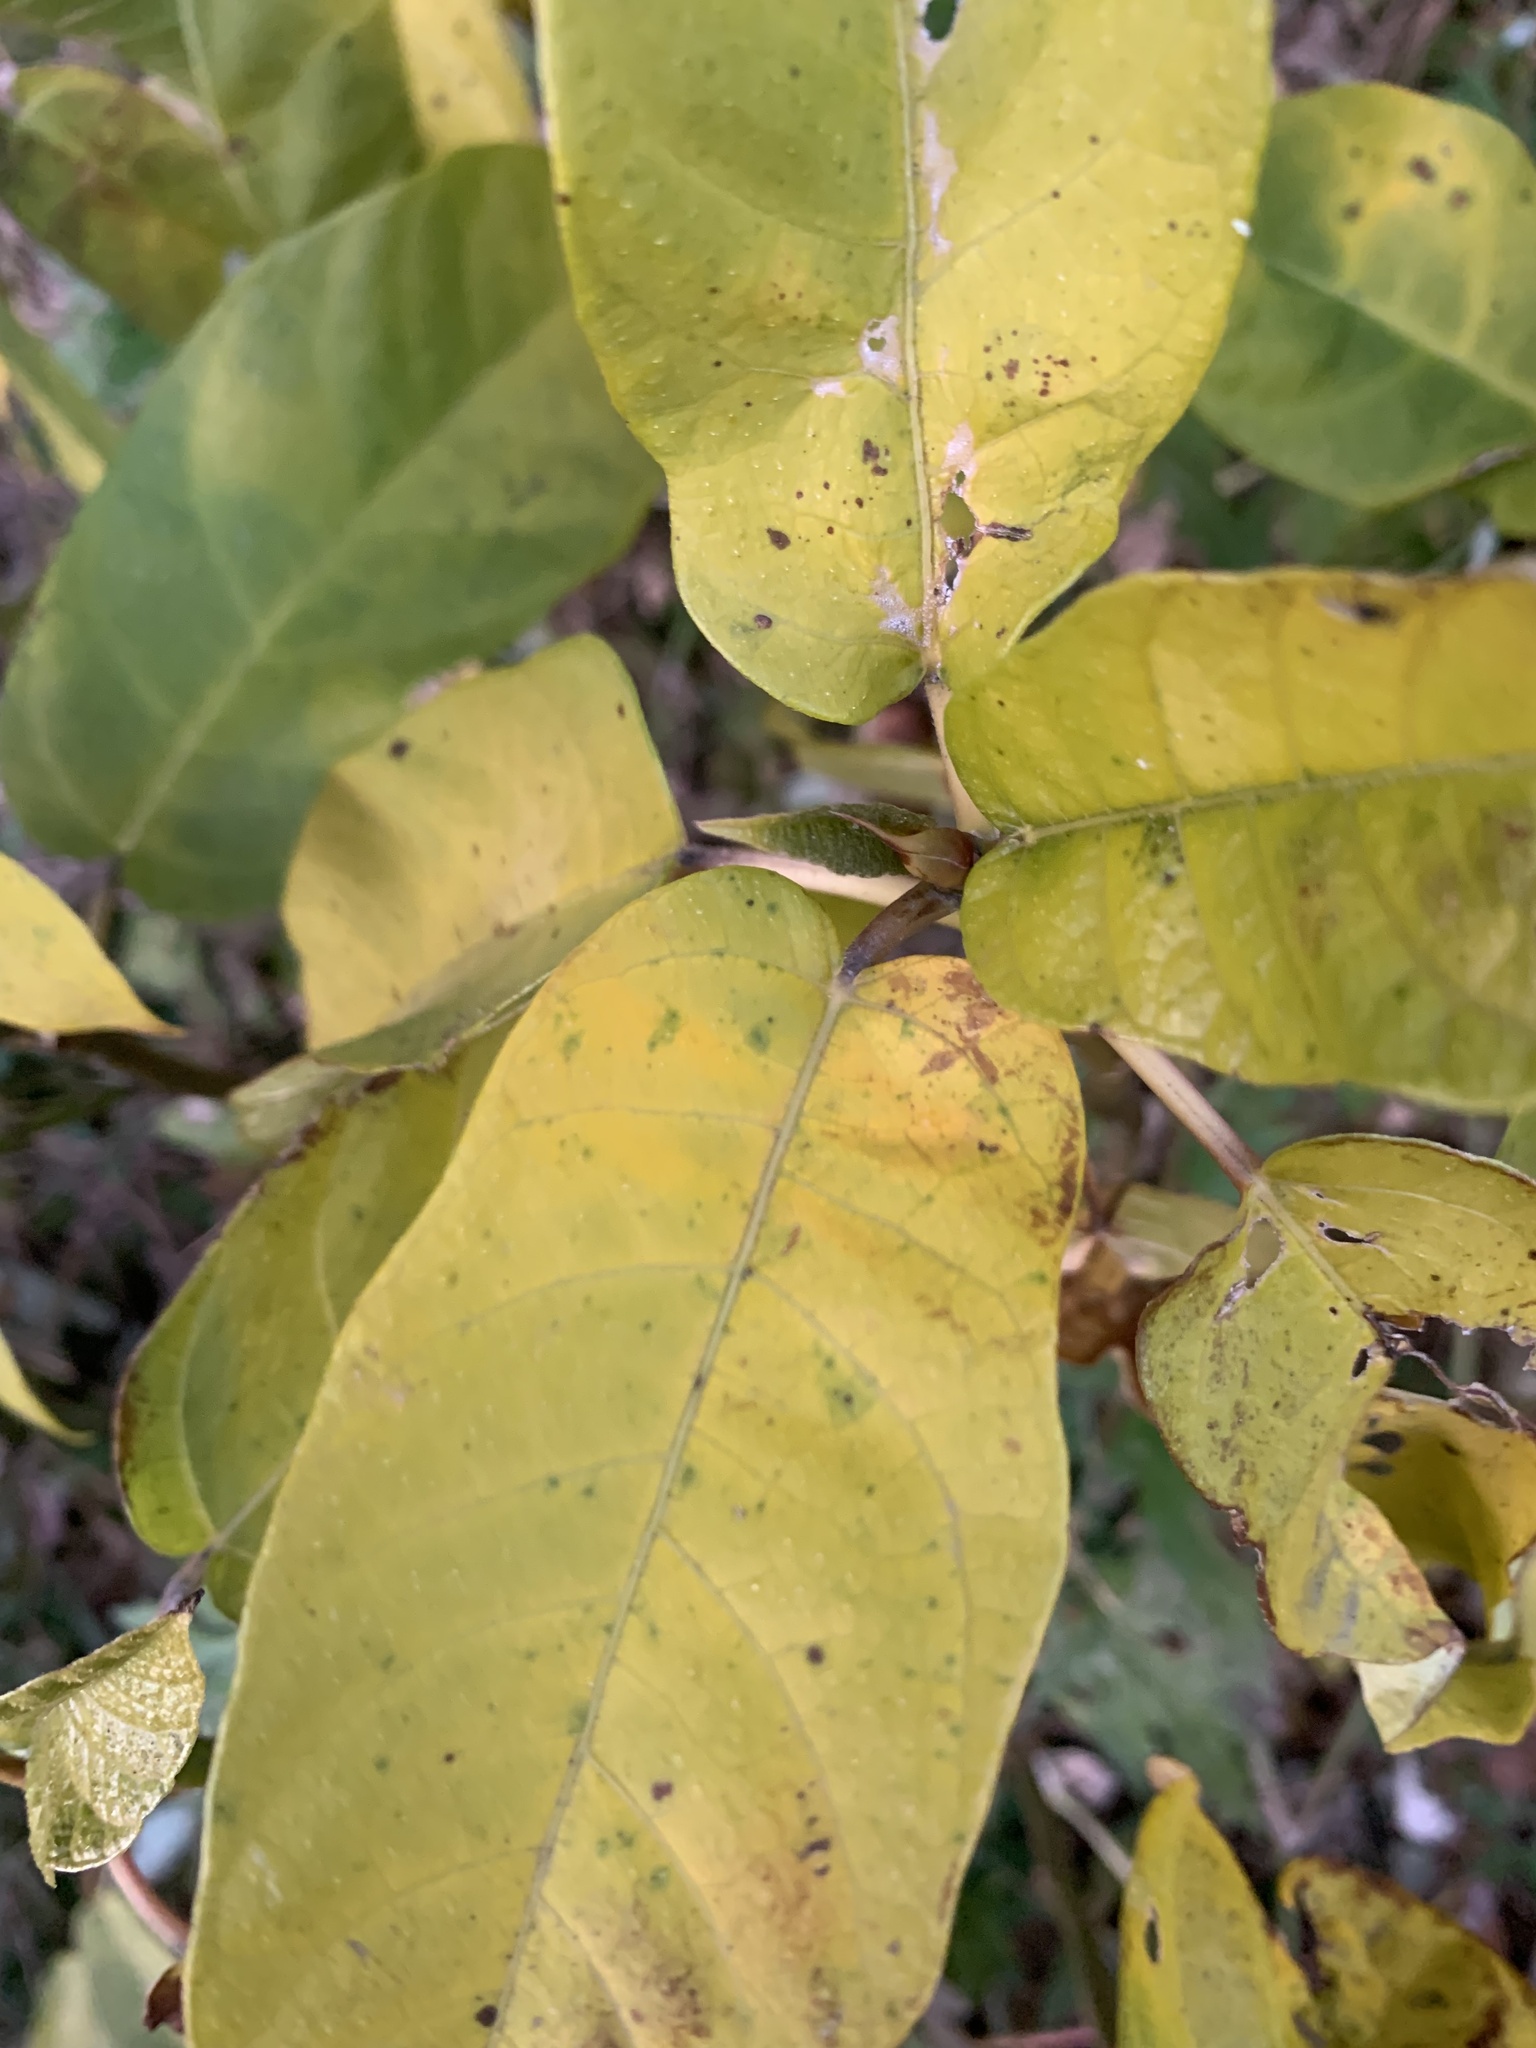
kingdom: Plantae
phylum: Tracheophyta
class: Magnoliopsida
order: Rosales
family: Moraceae
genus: Ficus
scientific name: Ficus erecta
